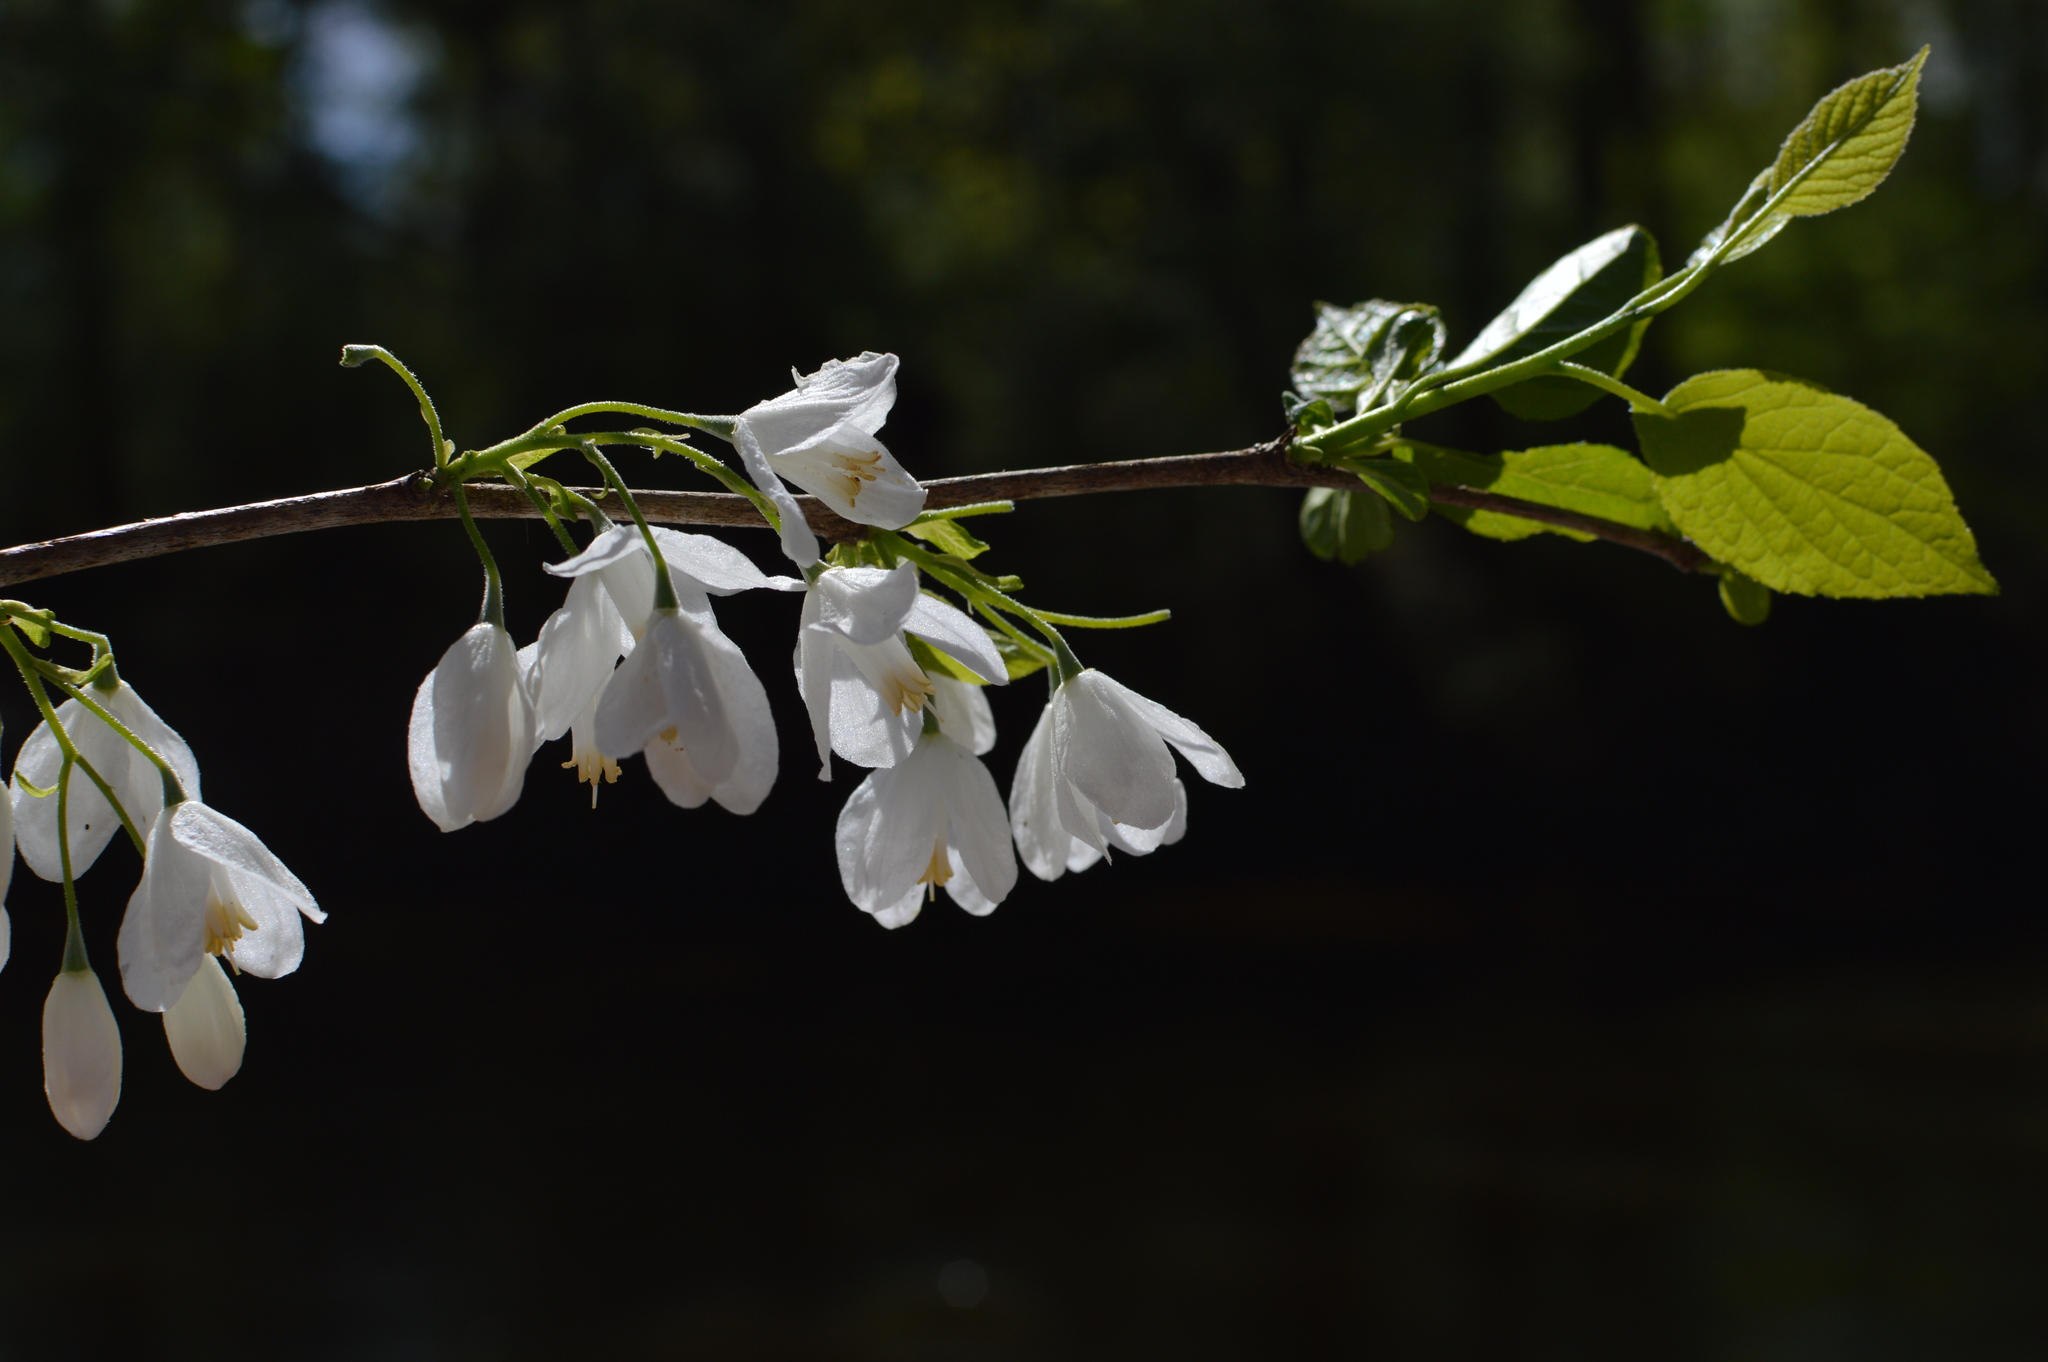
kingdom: Plantae
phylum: Tracheophyta
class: Magnoliopsida
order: Ericales
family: Styracaceae
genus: Halesia
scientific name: Halesia diptera
